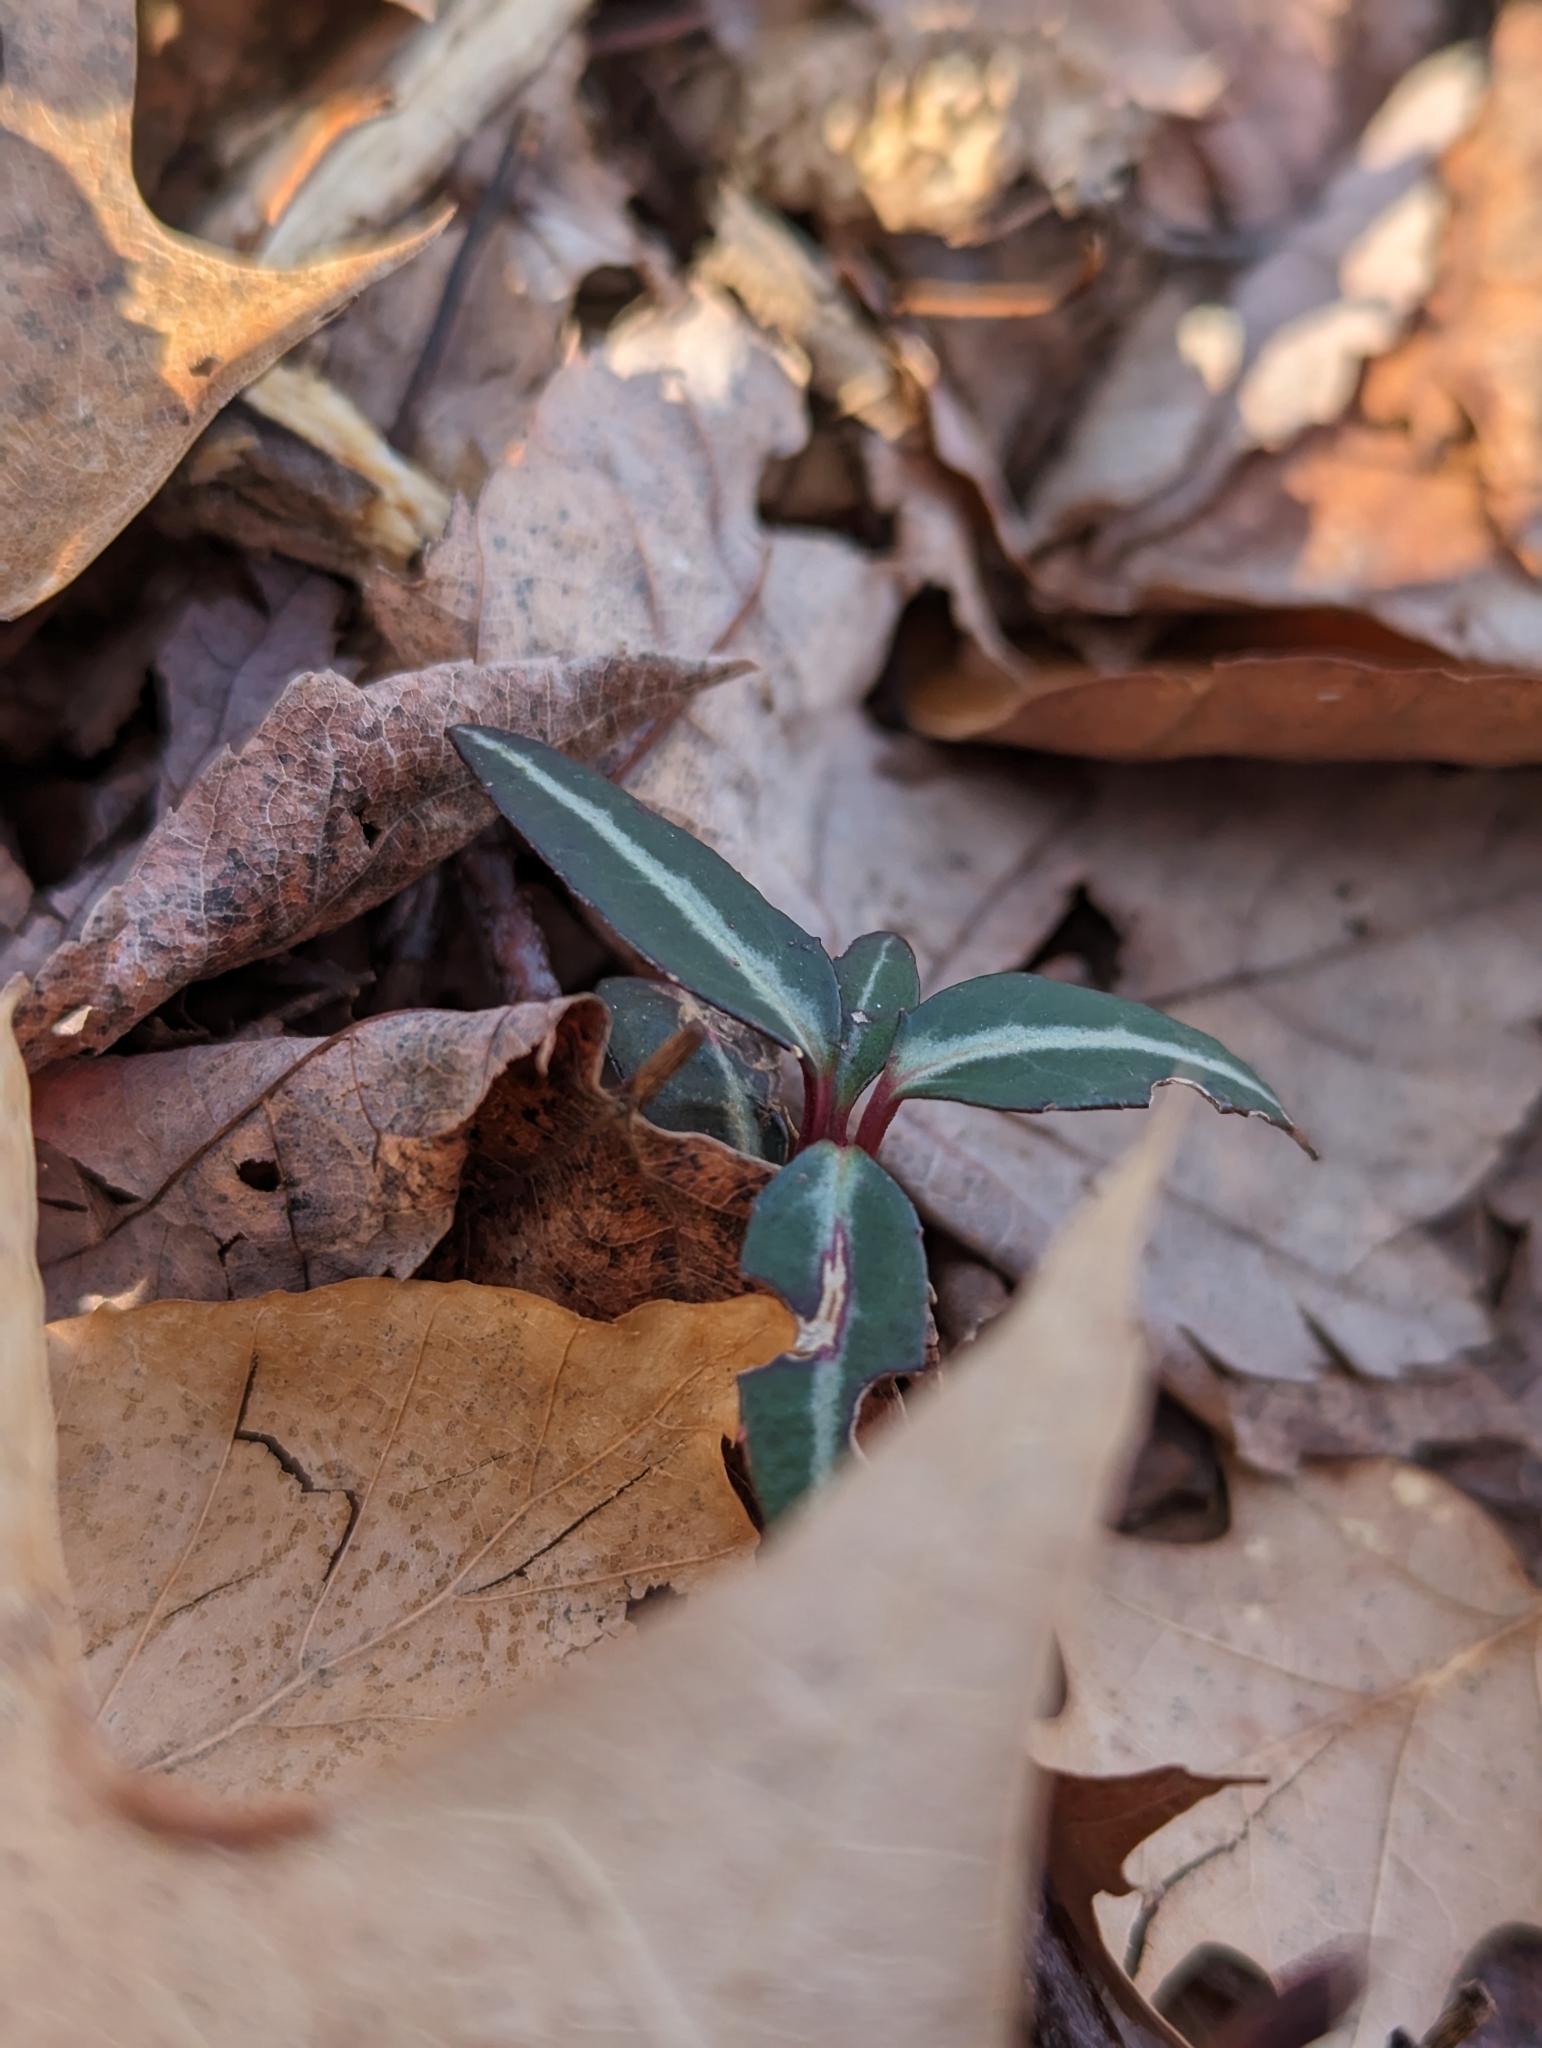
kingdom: Plantae
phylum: Tracheophyta
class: Magnoliopsida
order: Ericales
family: Ericaceae
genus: Chimaphila
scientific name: Chimaphila maculata
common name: Spotted pipsissewa
